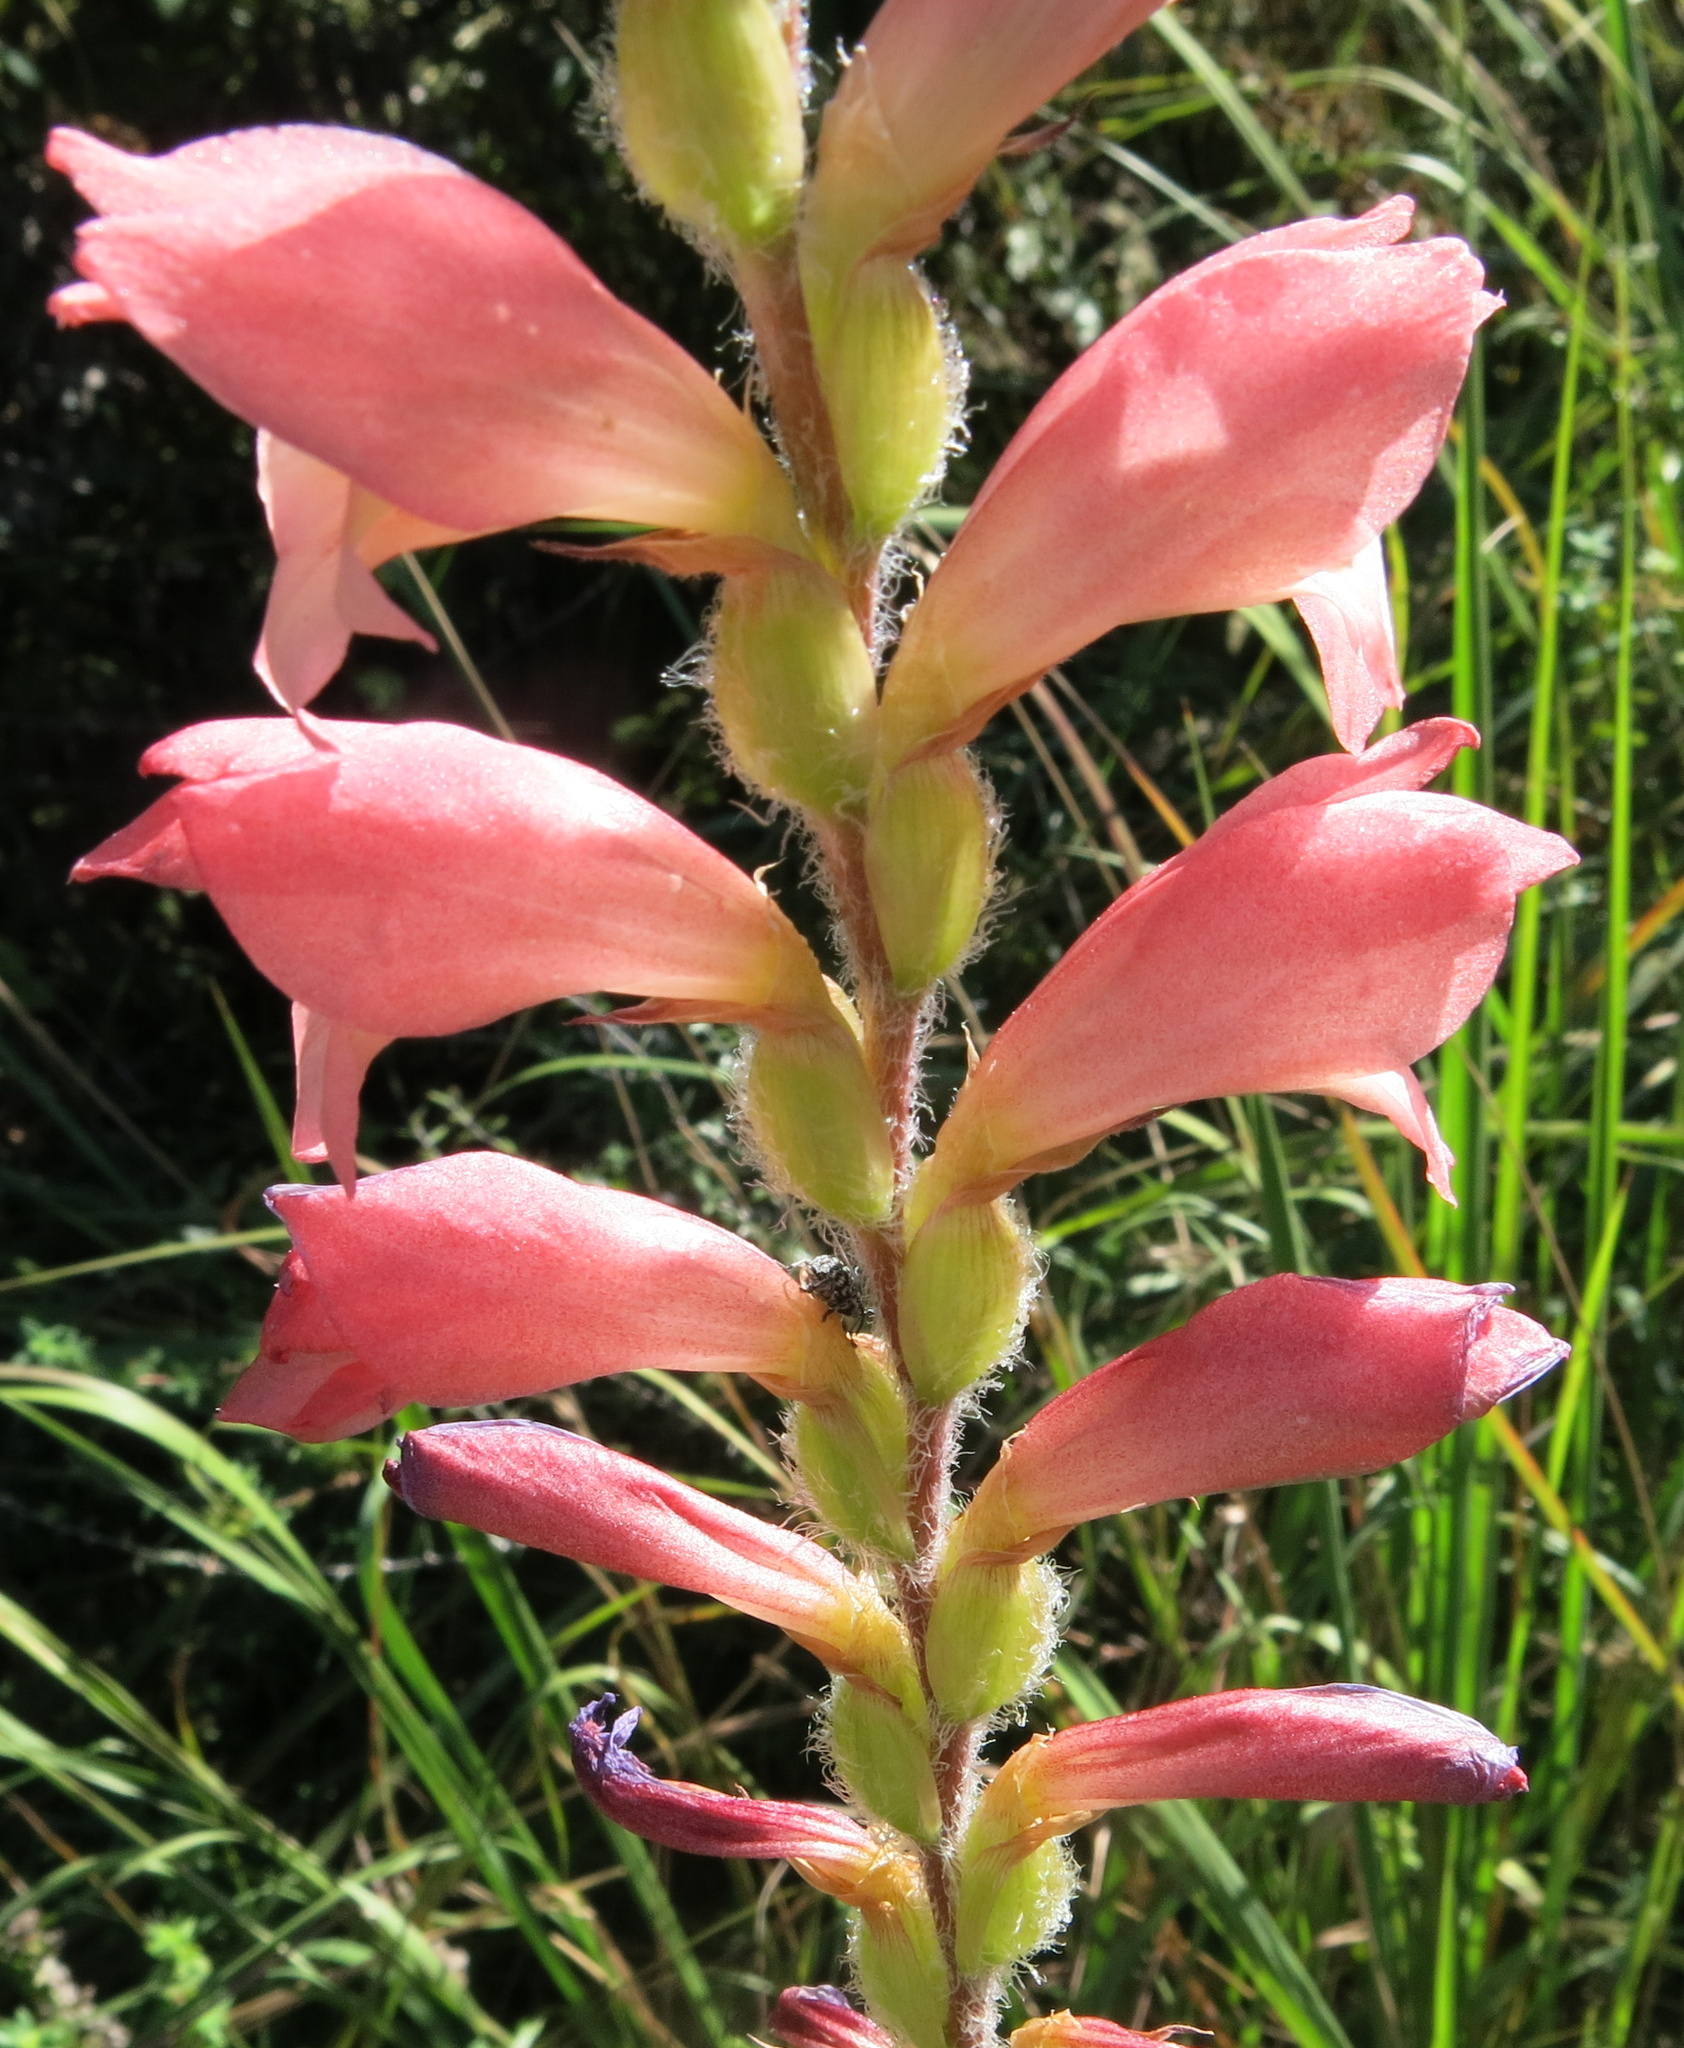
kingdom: Plantae
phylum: Tracheophyta
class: Liliopsida
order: Asparagales
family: Iridaceae
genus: Gladiolus
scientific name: Gladiolus sericeovillosus
